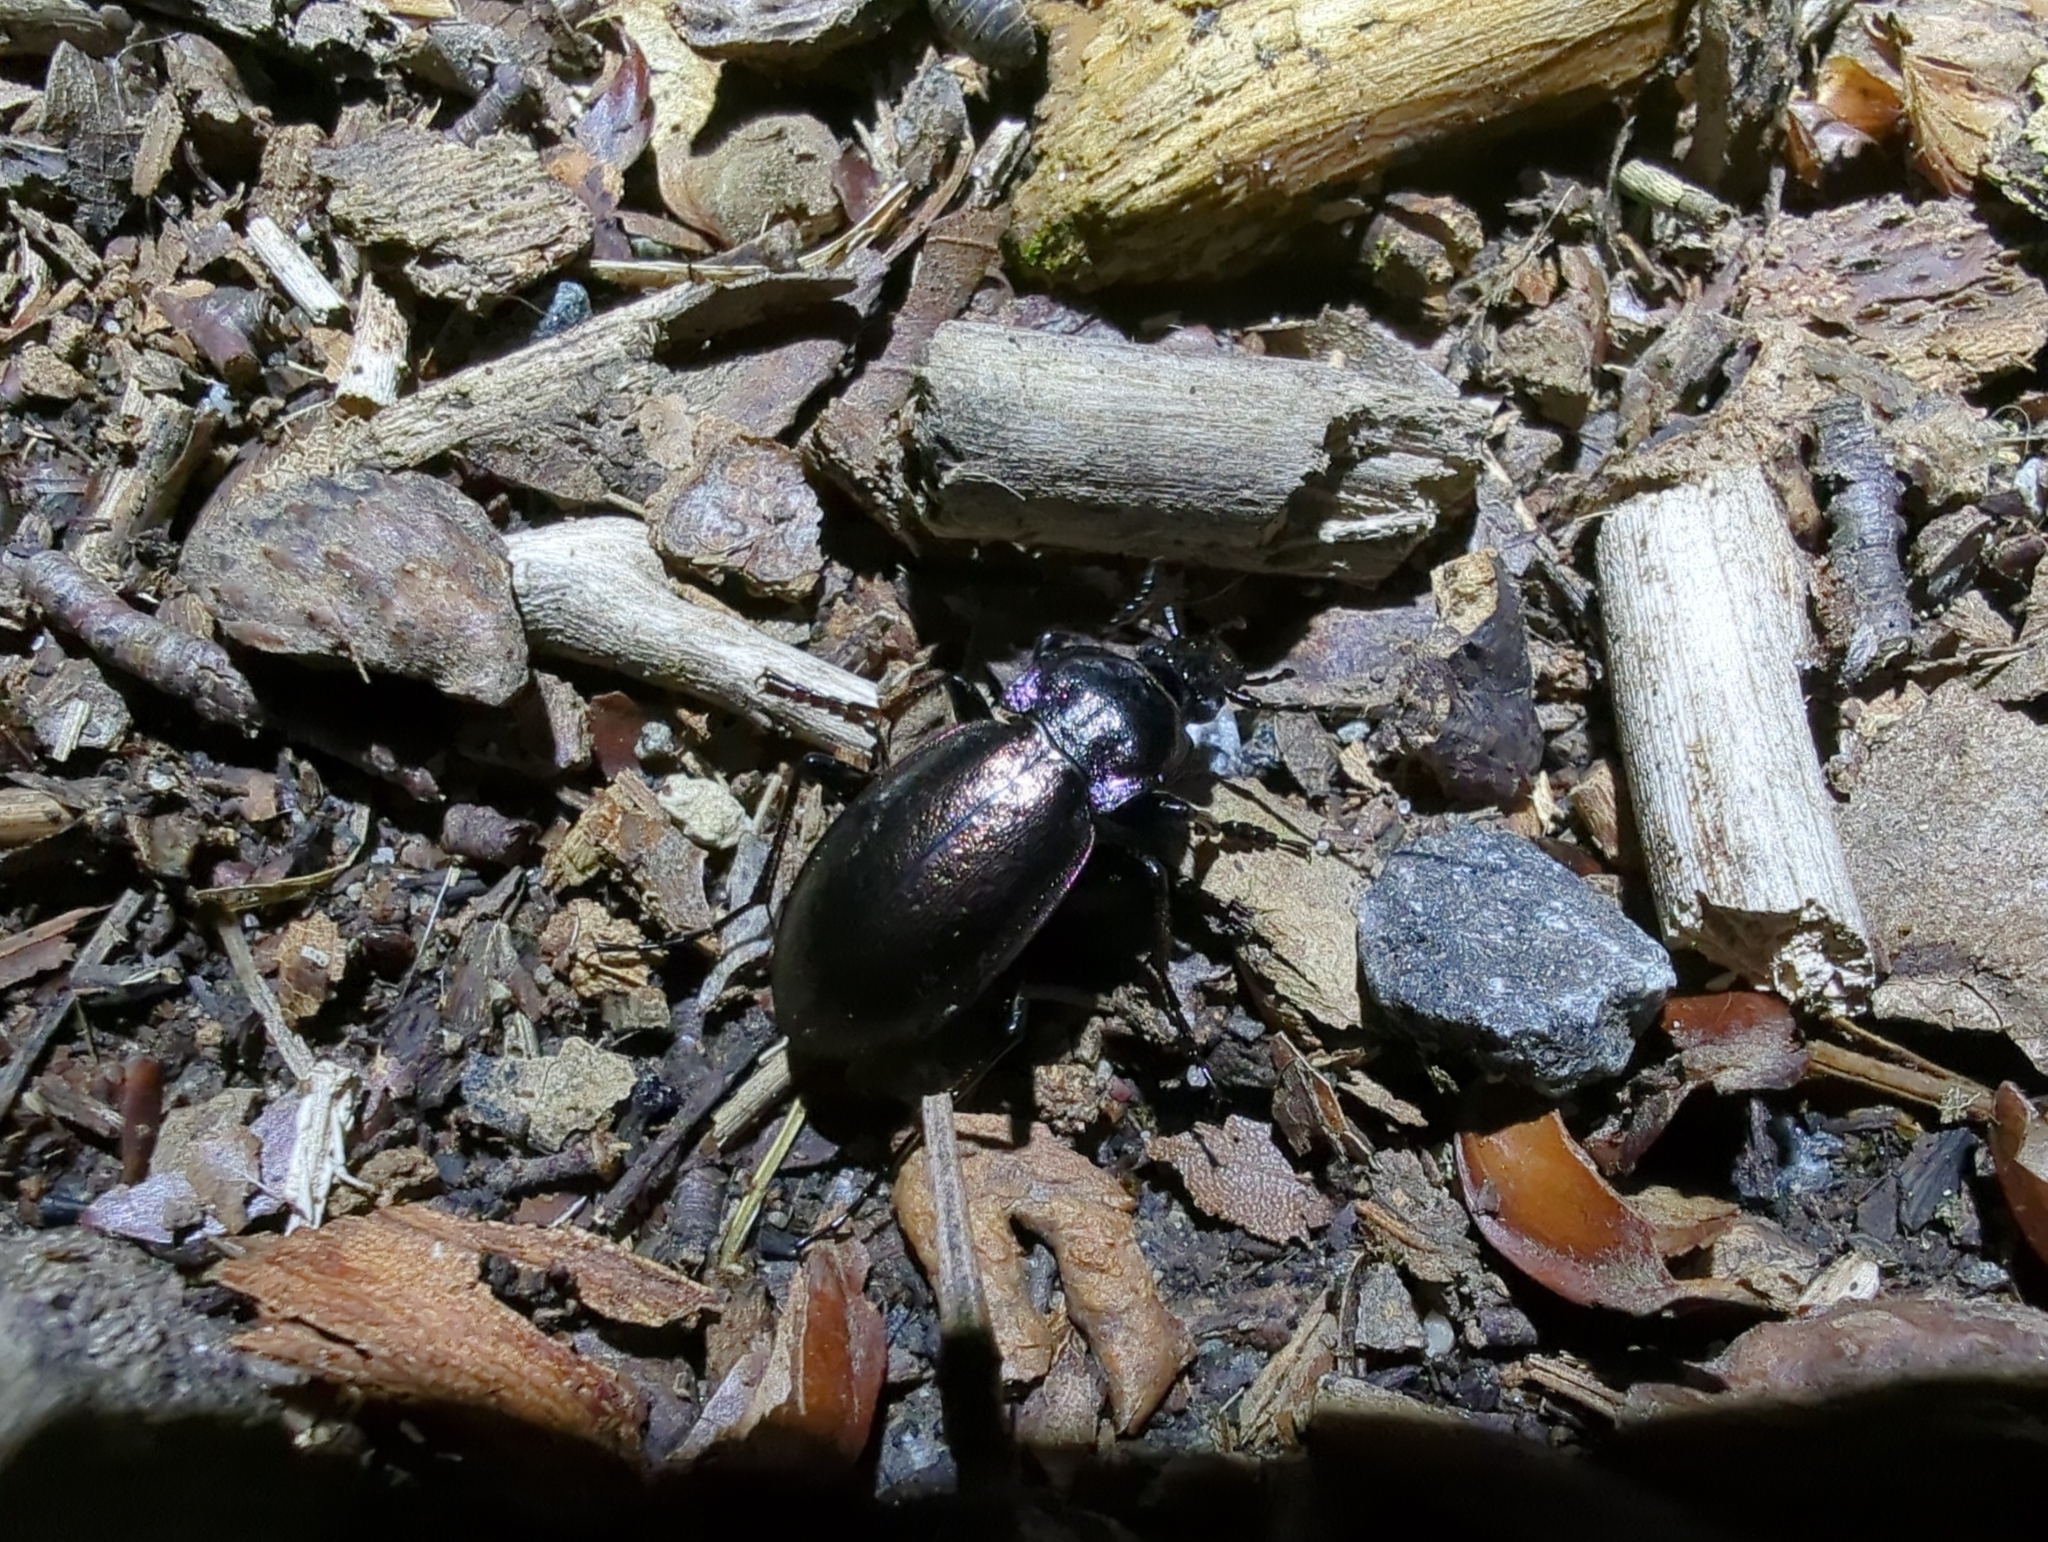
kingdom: Animalia
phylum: Arthropoda
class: Insecta
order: Coleoptera
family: Carabidae
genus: Carabus
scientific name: Carabus nemoralis
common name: European ground beetle
